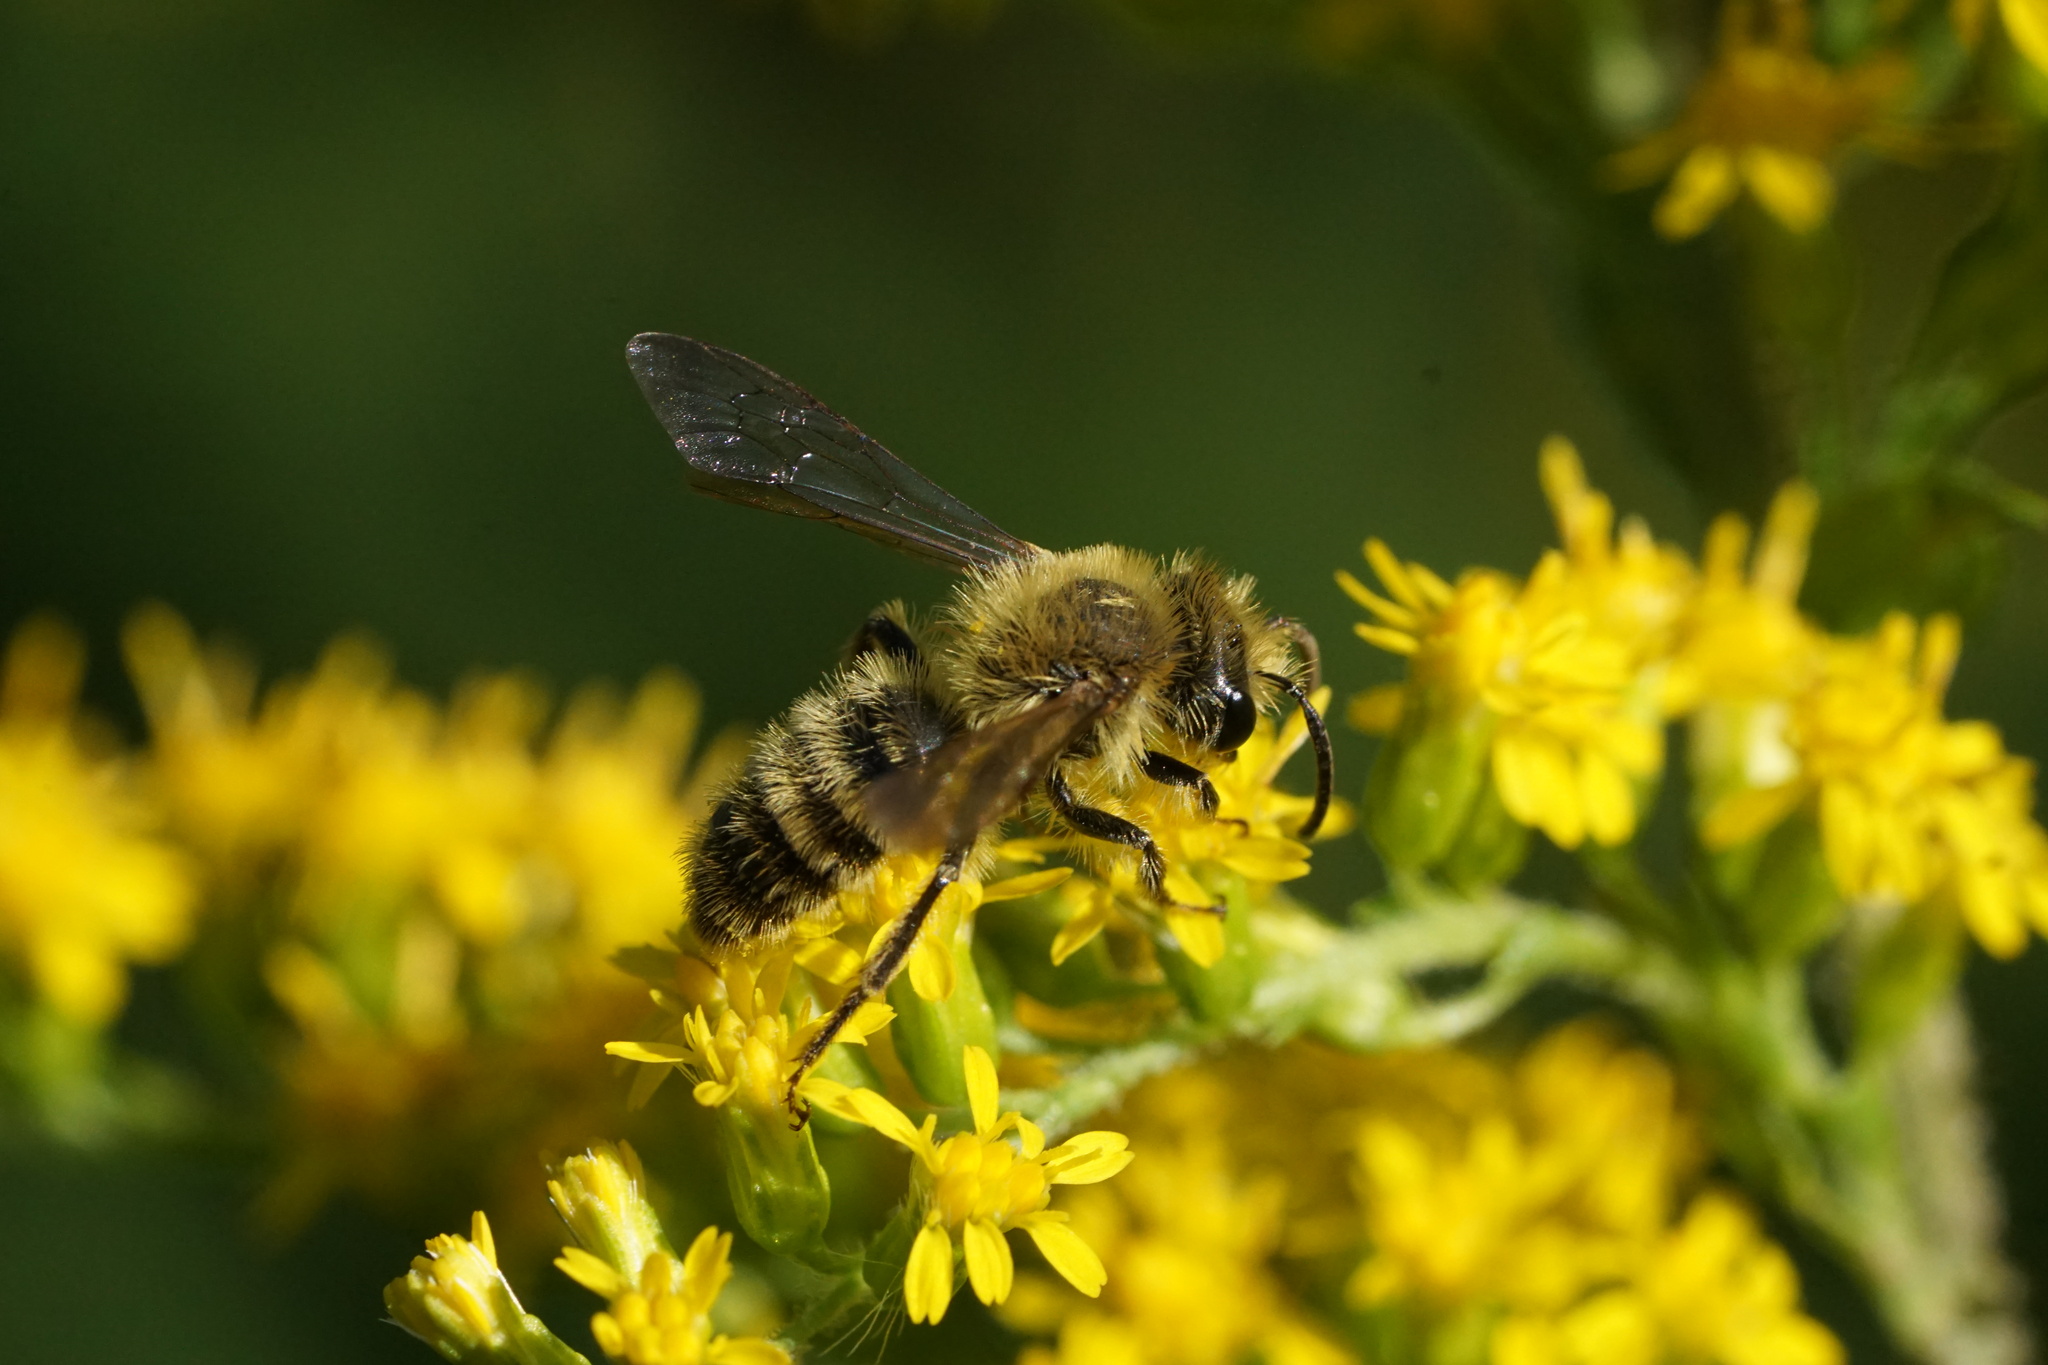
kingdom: Animalia
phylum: Arthropoda
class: Insecta
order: Hymenoptera
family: Andrenidae
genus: Andrena
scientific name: Andrena hirticincta
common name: Hairy-banded mining bee
